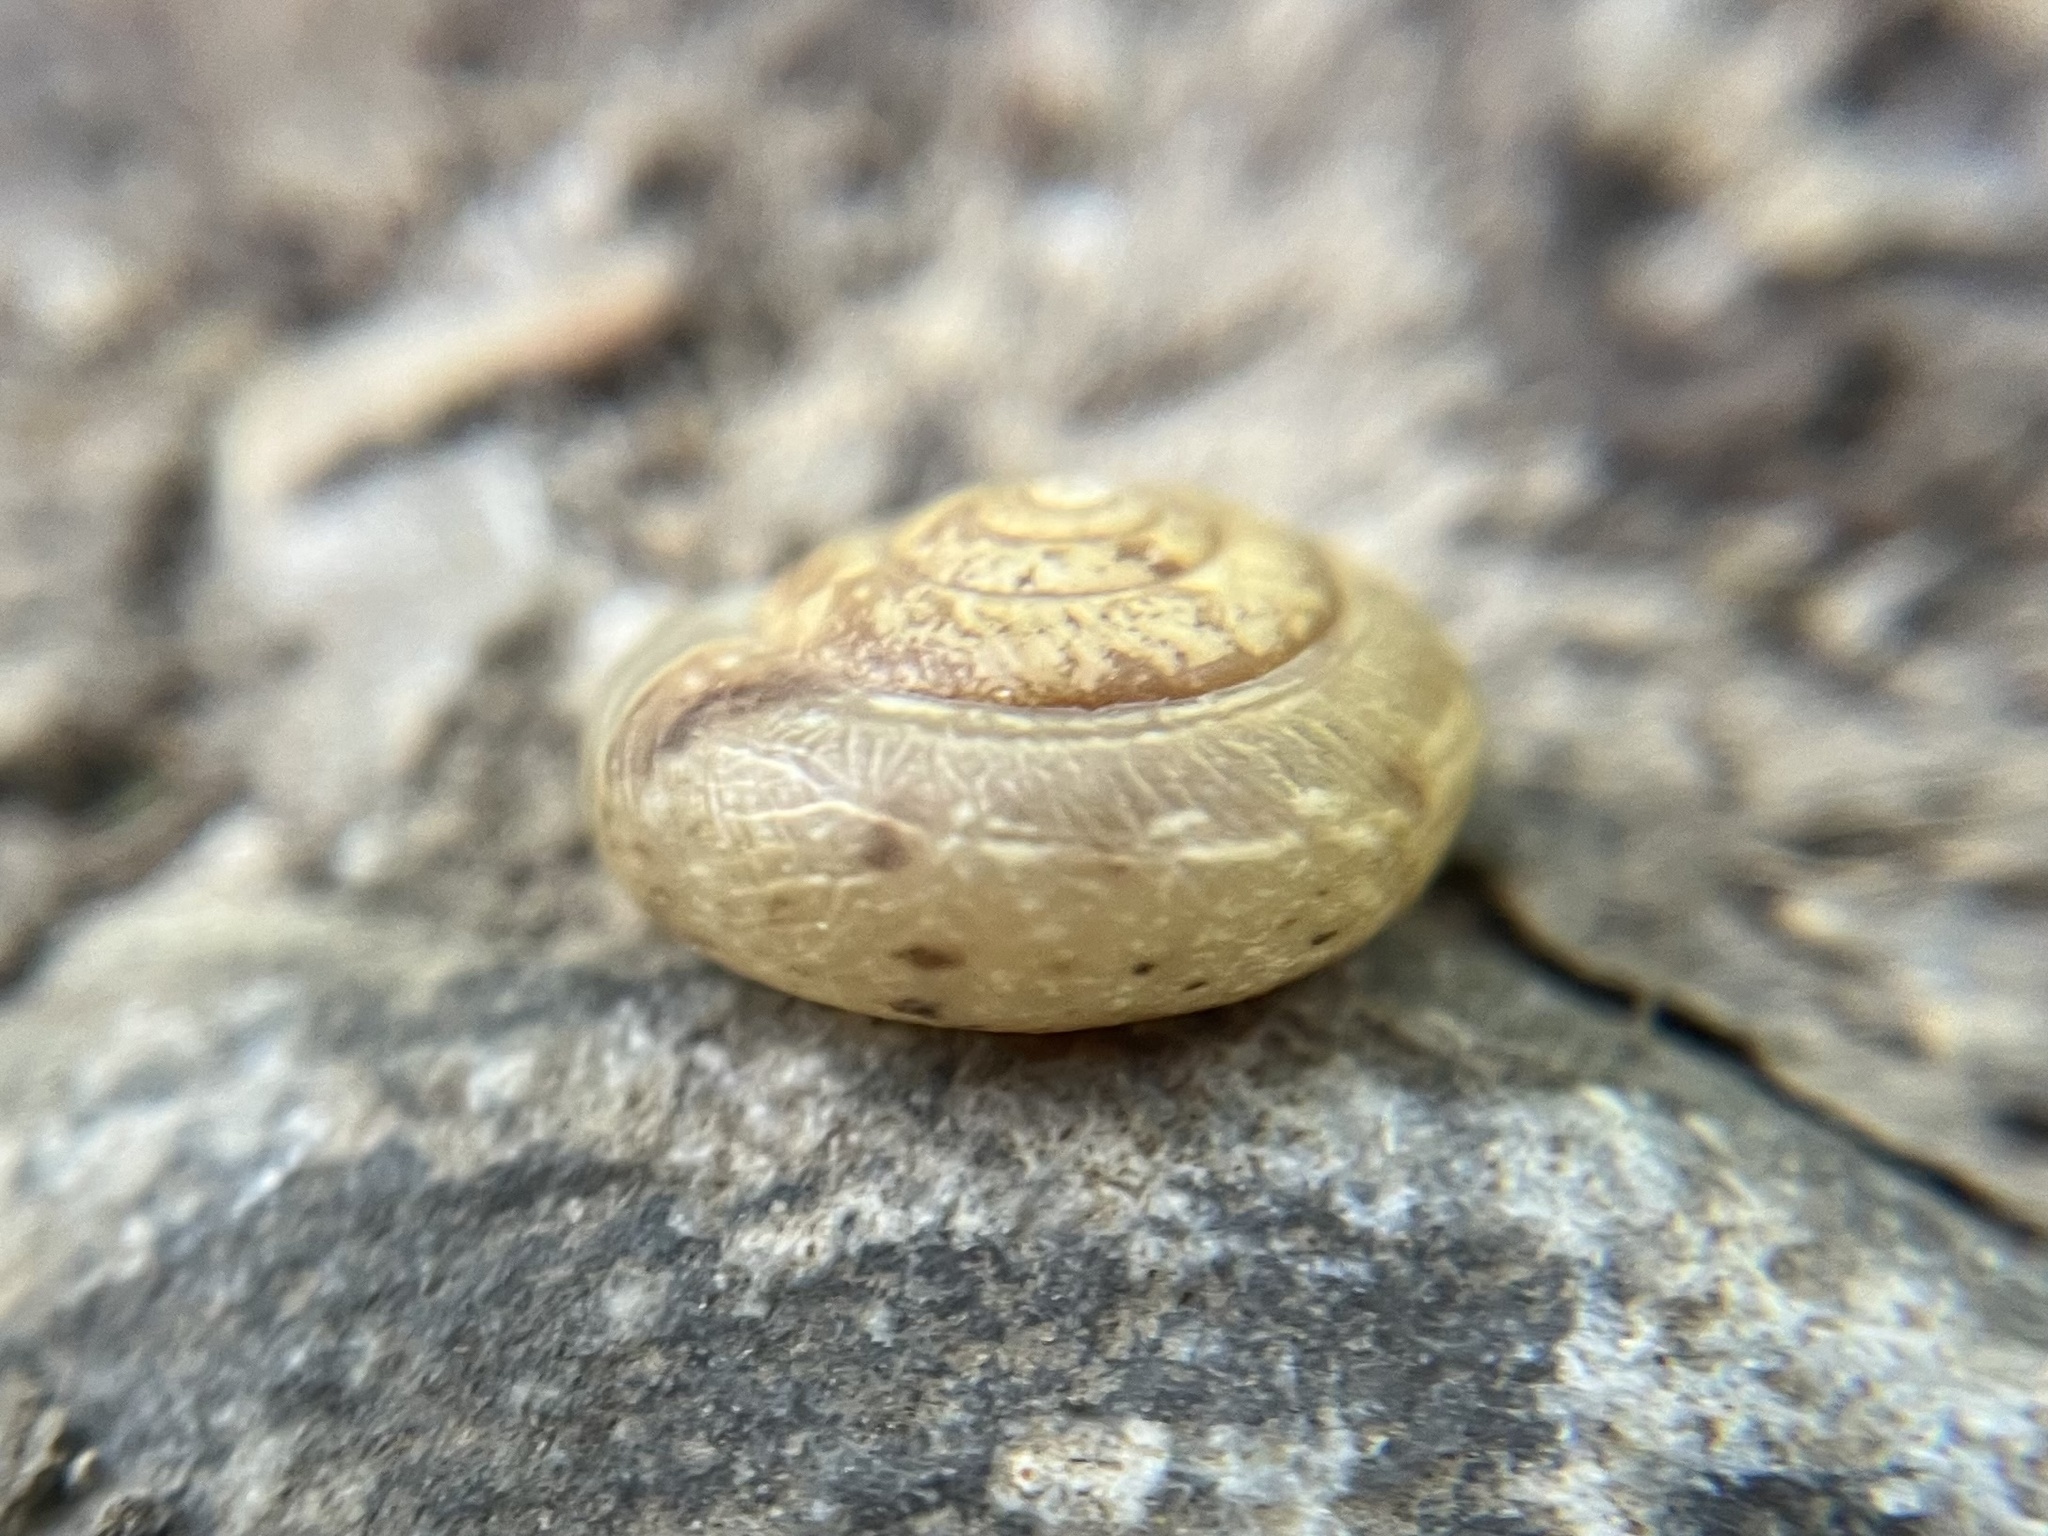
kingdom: Animalia
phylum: Mollusca
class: Gastropoda
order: Stylommatophora
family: Hygromiidae
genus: Urticicola
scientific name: Urticicola umbrosus
